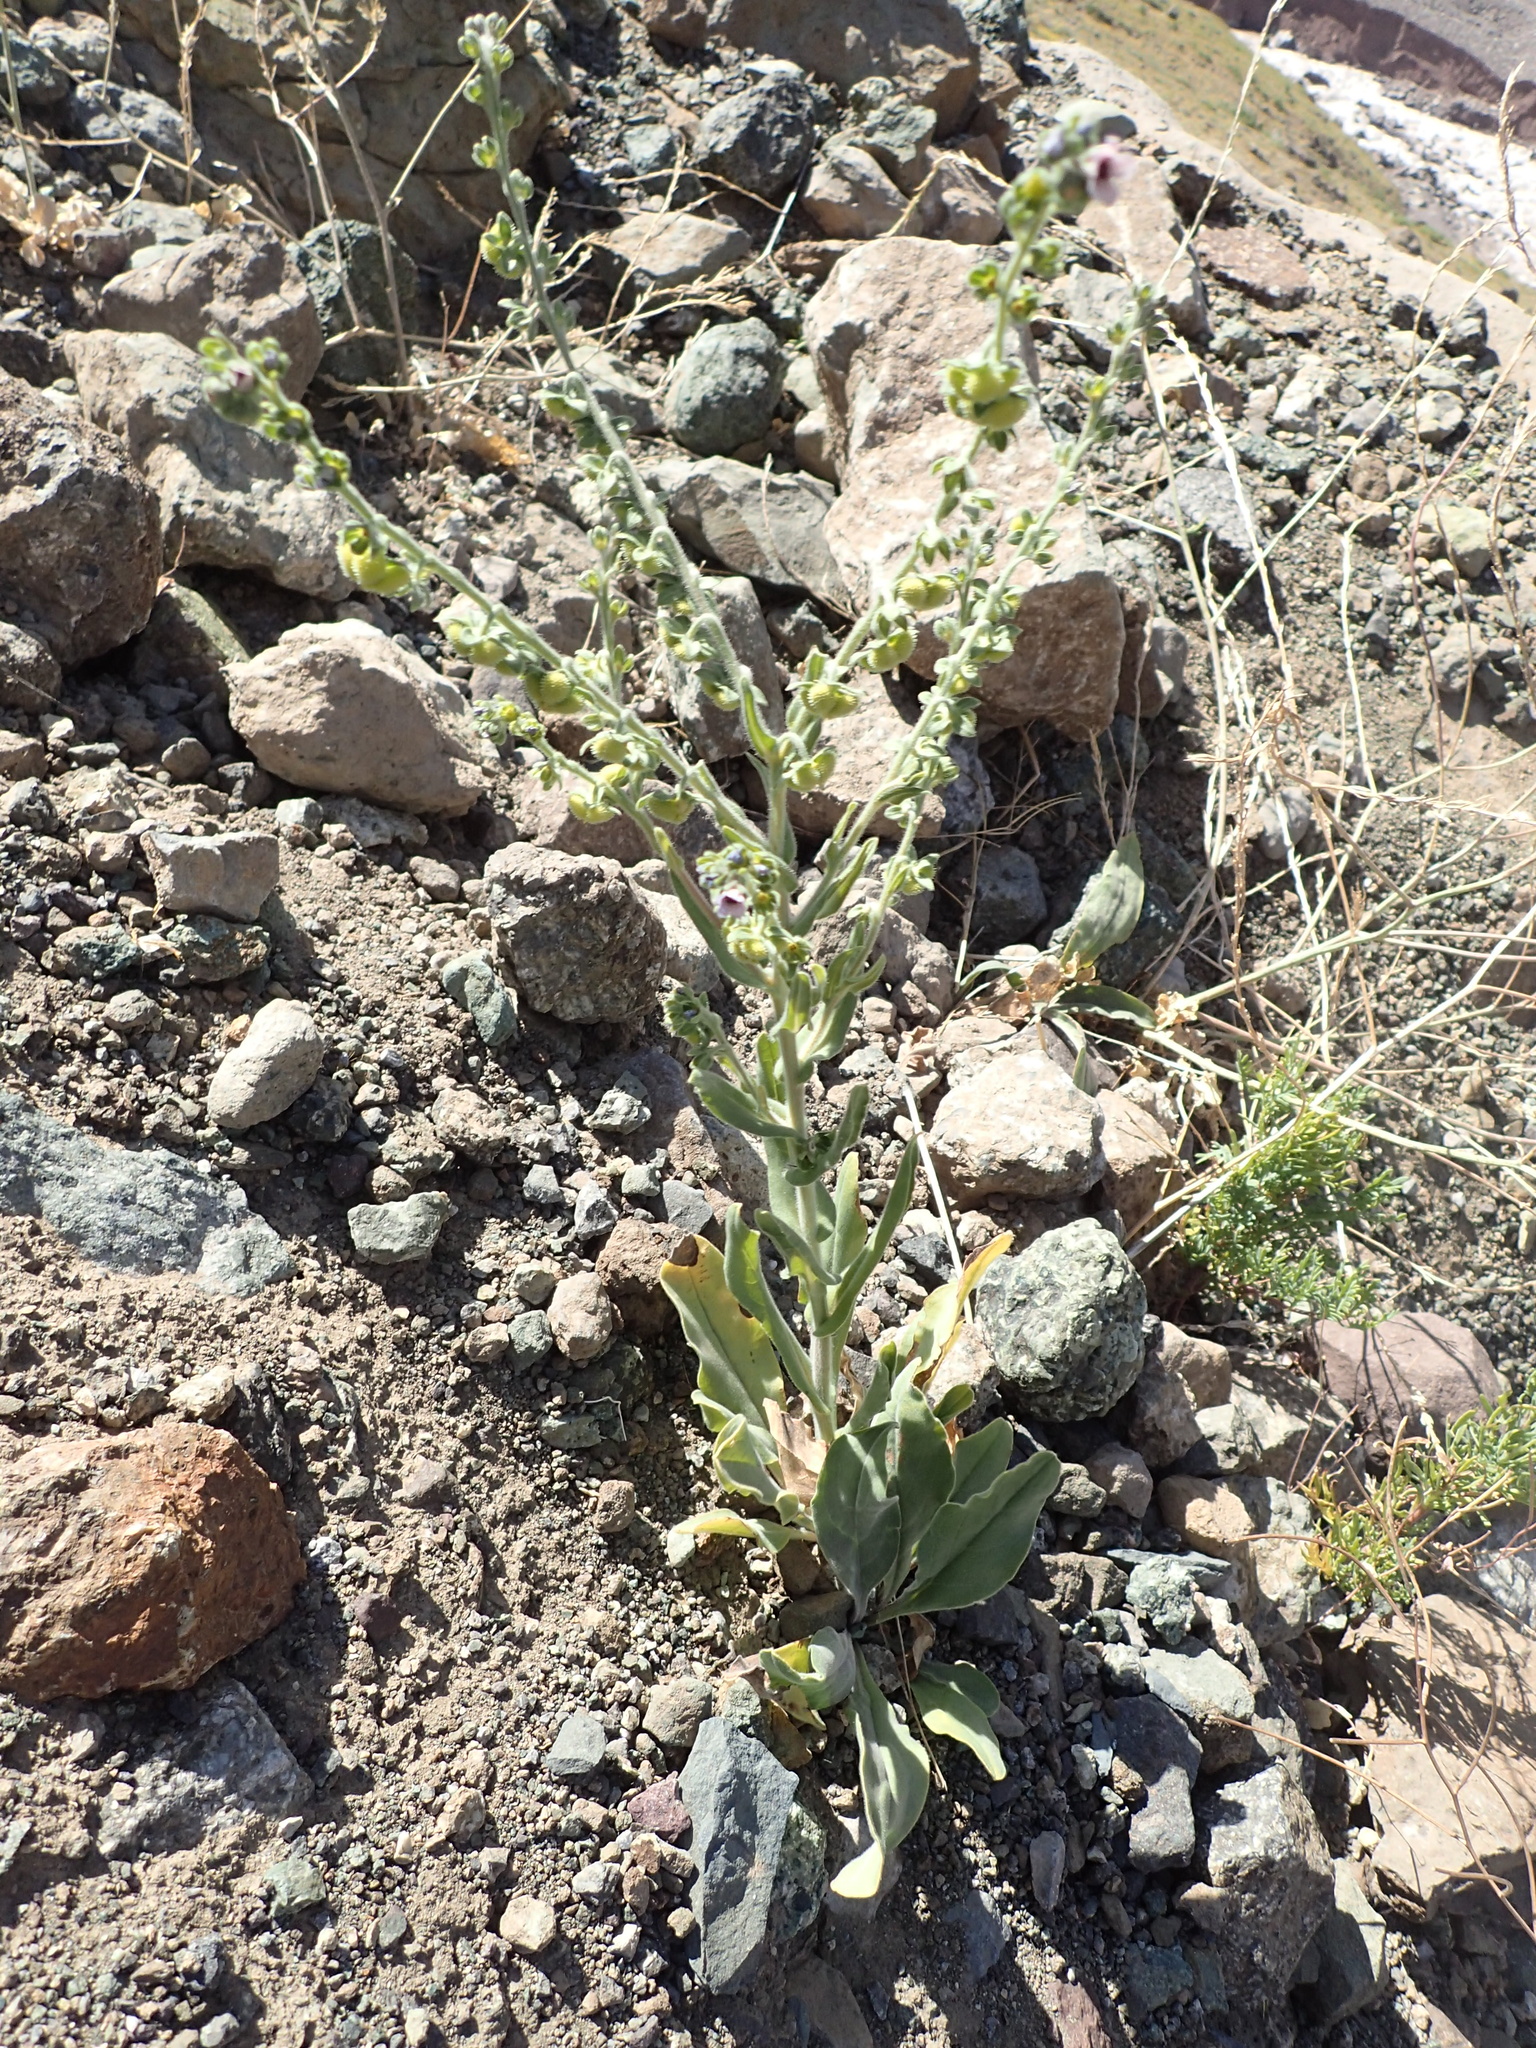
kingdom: Plantae
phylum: Tracheophyta
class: Magnoliopsida
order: Boraginales
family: Boraginaceae
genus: Cynoglossum
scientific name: Cynoglossum creticum
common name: Blue hound's tongue
